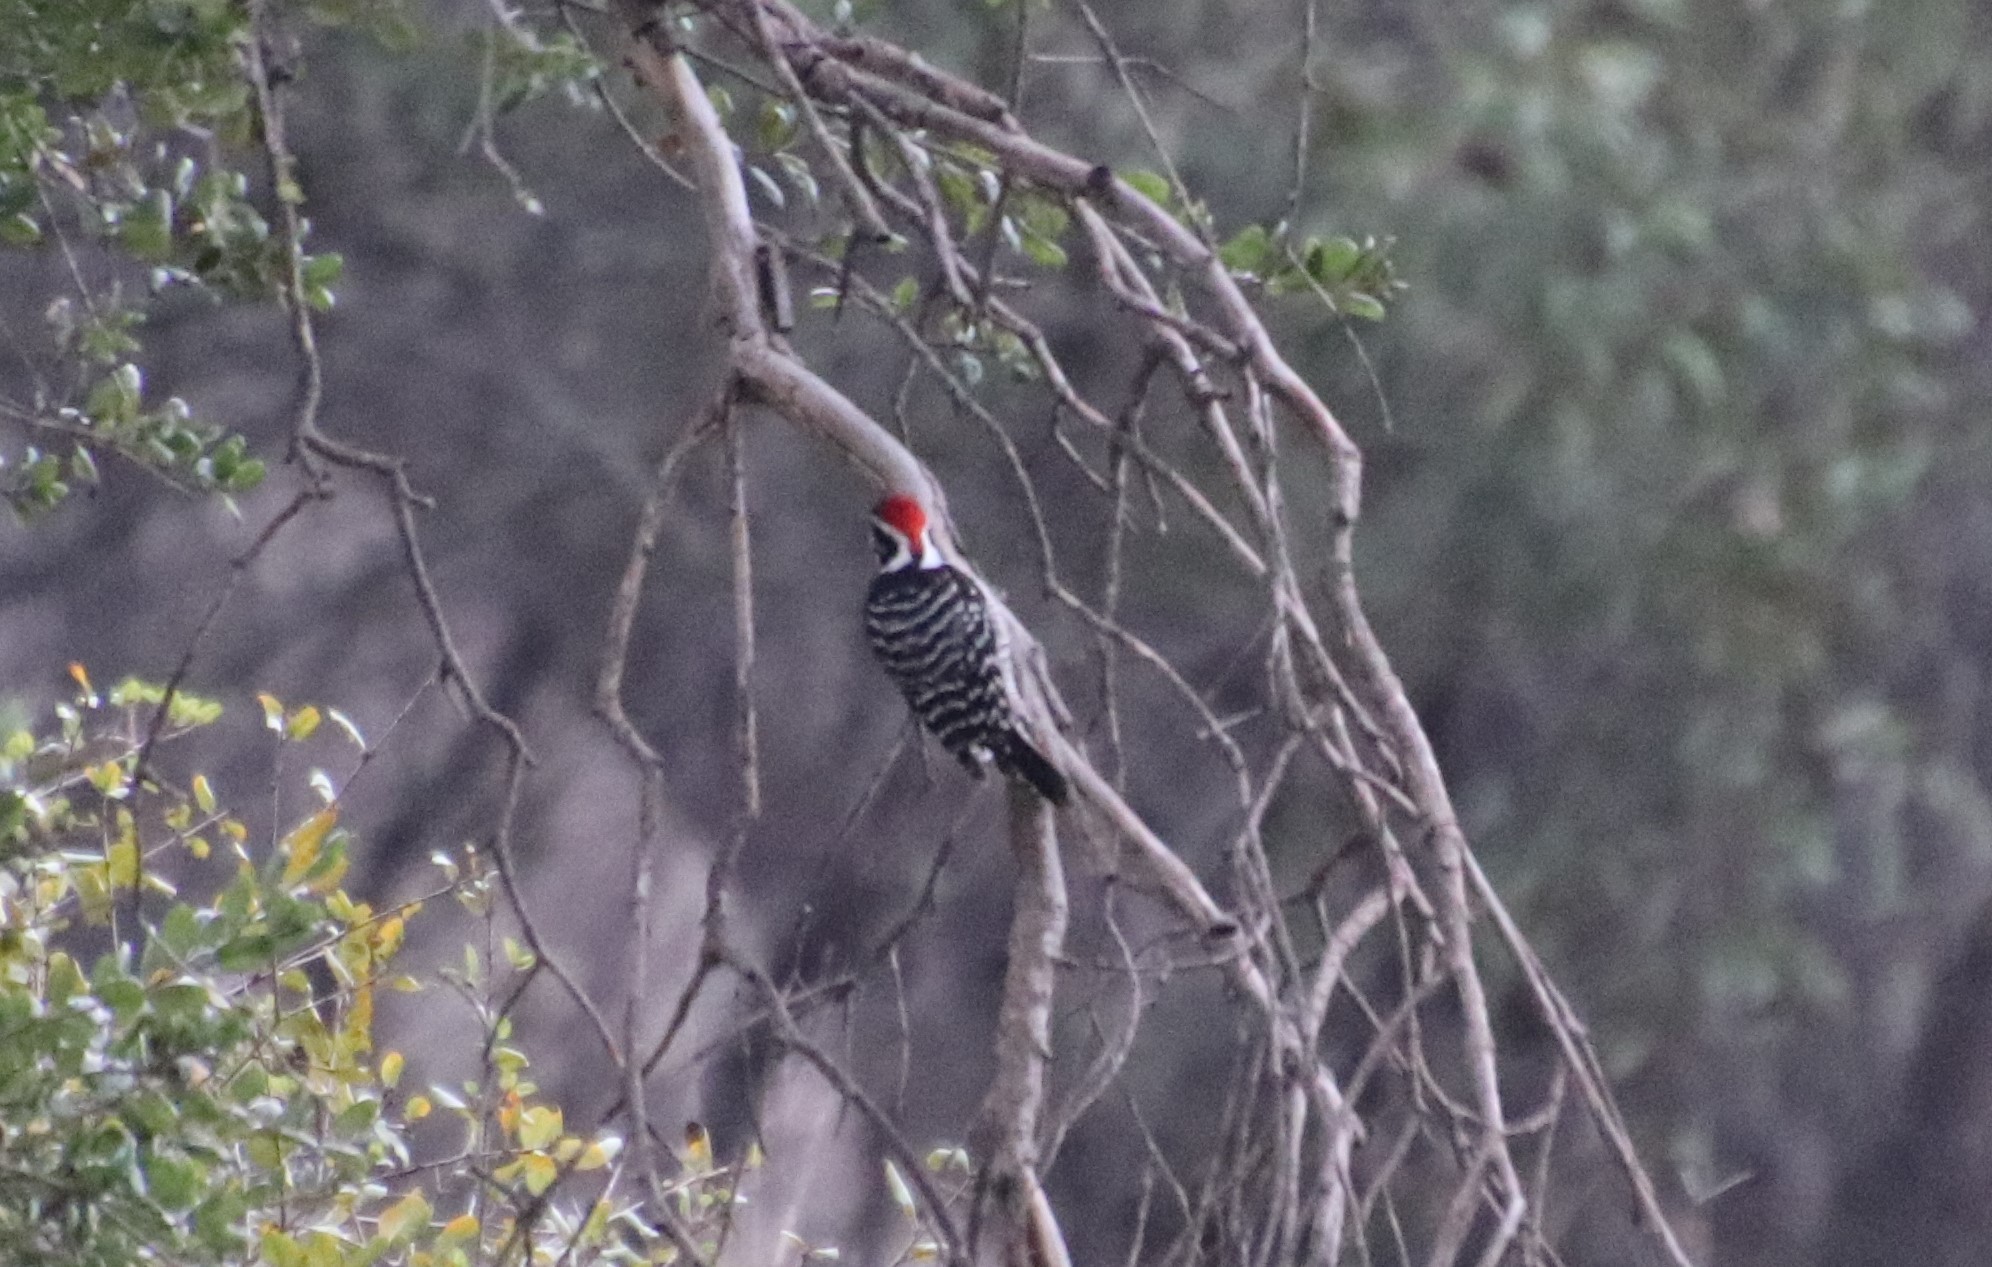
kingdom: Animalia
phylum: Chordata
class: Aves
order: Piciformes
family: Picidae
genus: Dryobates
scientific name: Dryobates nuttallii
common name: Nuttall's woodpecker
